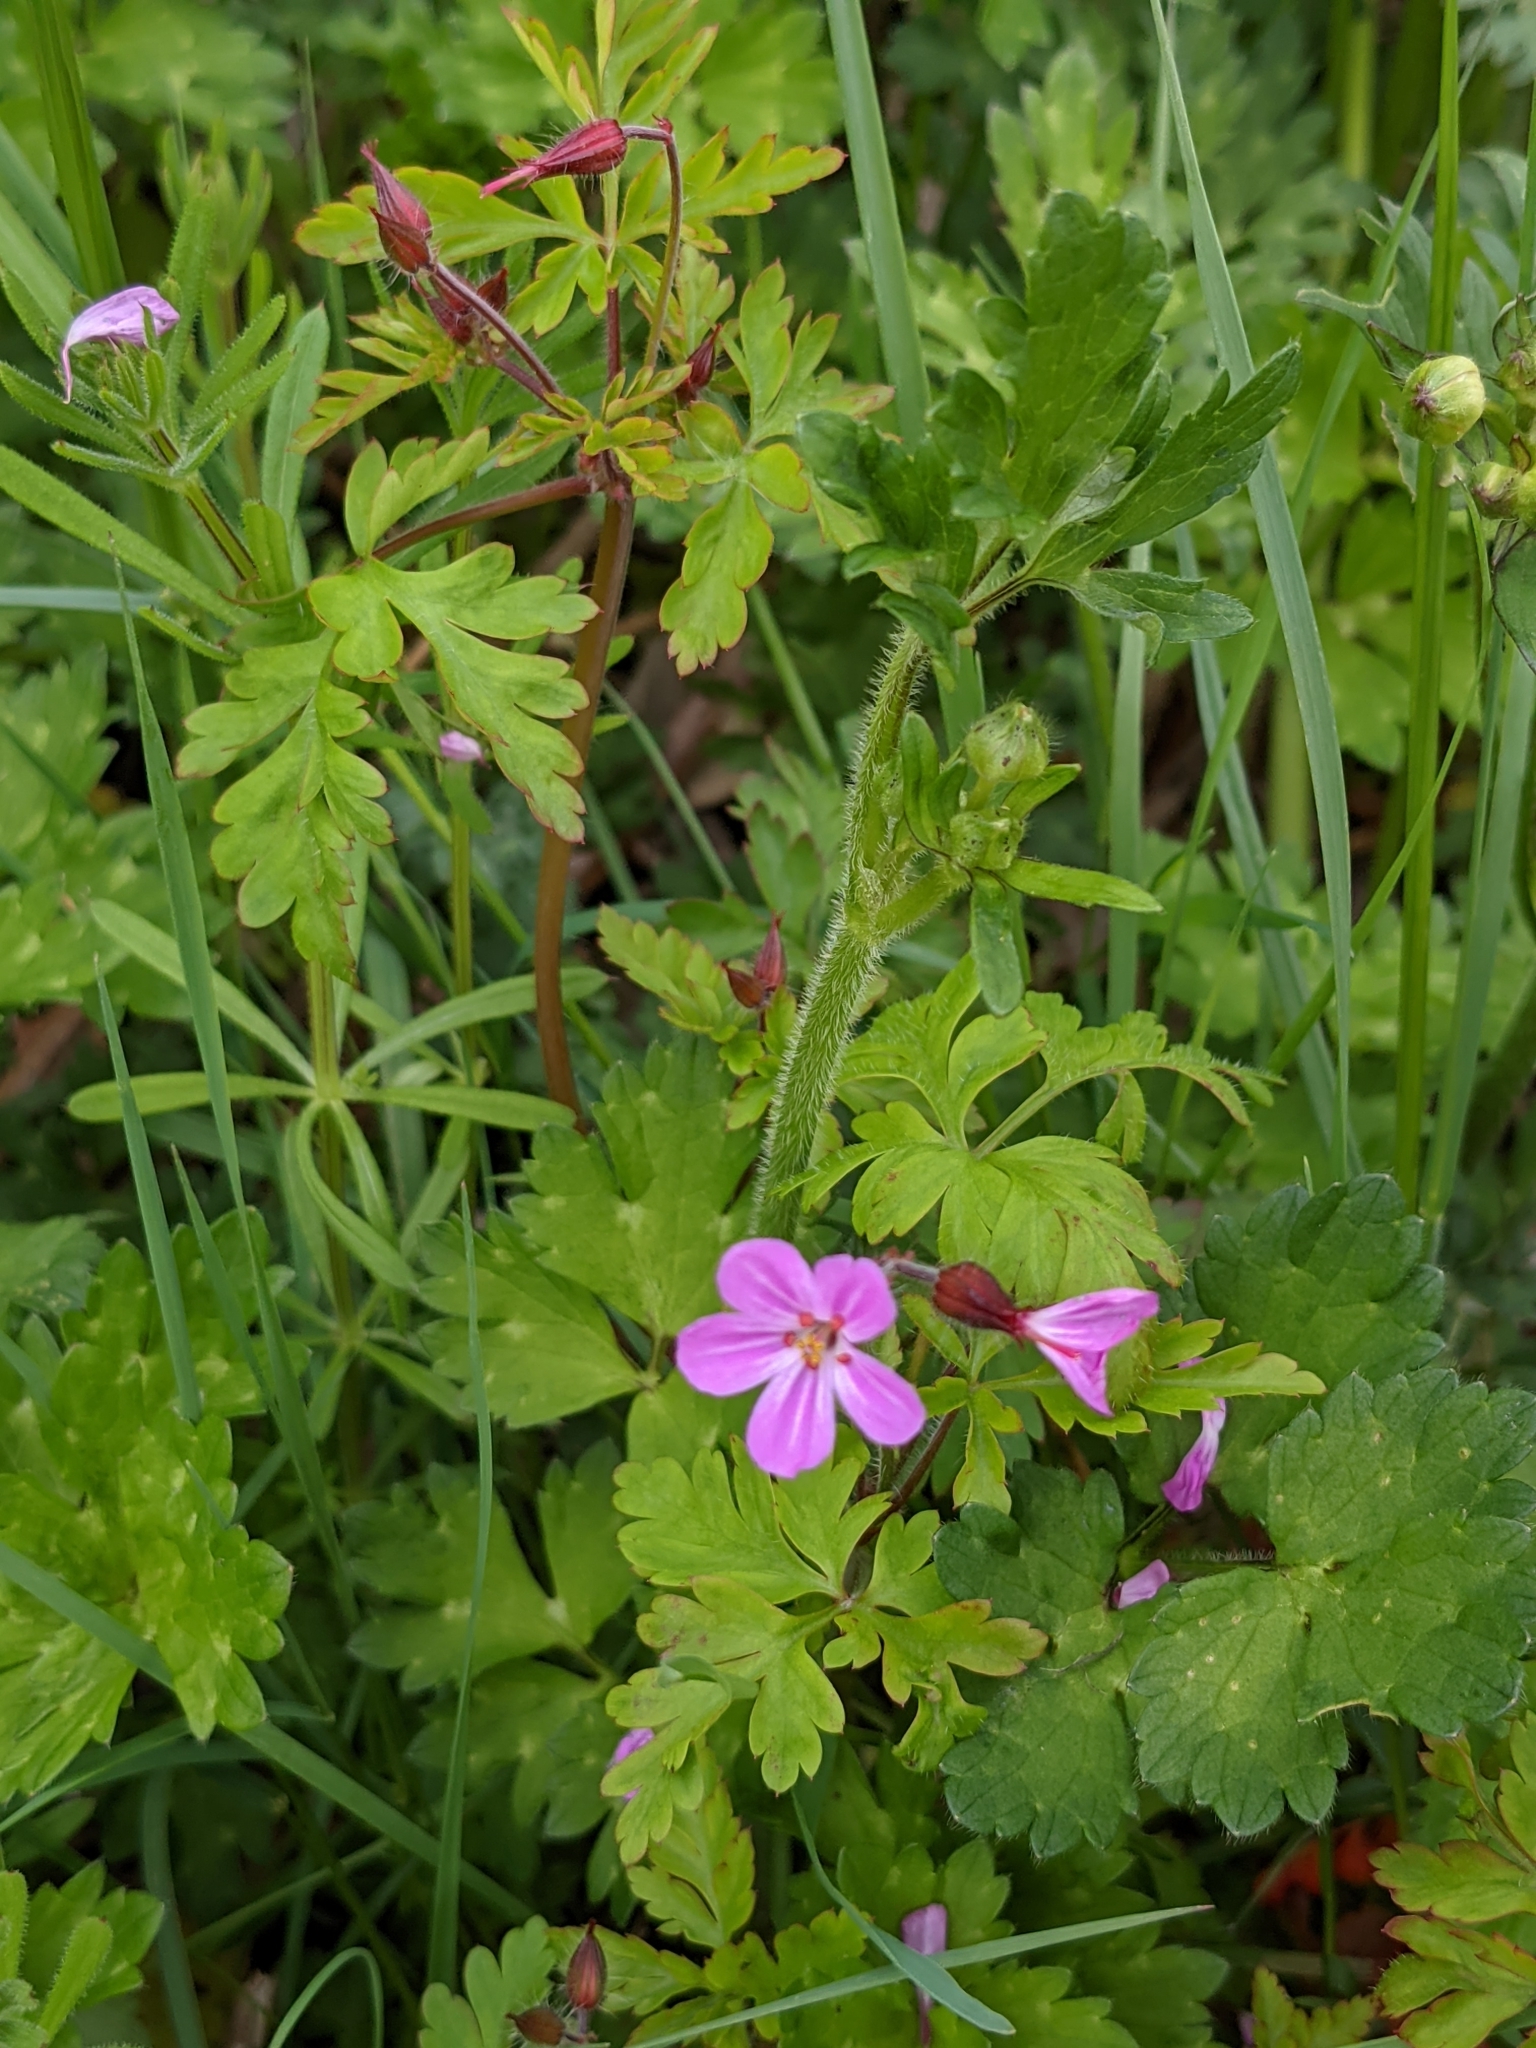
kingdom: Plantae
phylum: Tracheophyta
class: Magnoliopsida
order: Geraniales
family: Geraniaceae
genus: Geranium
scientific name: Geranium robertianum
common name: Herb-robert
